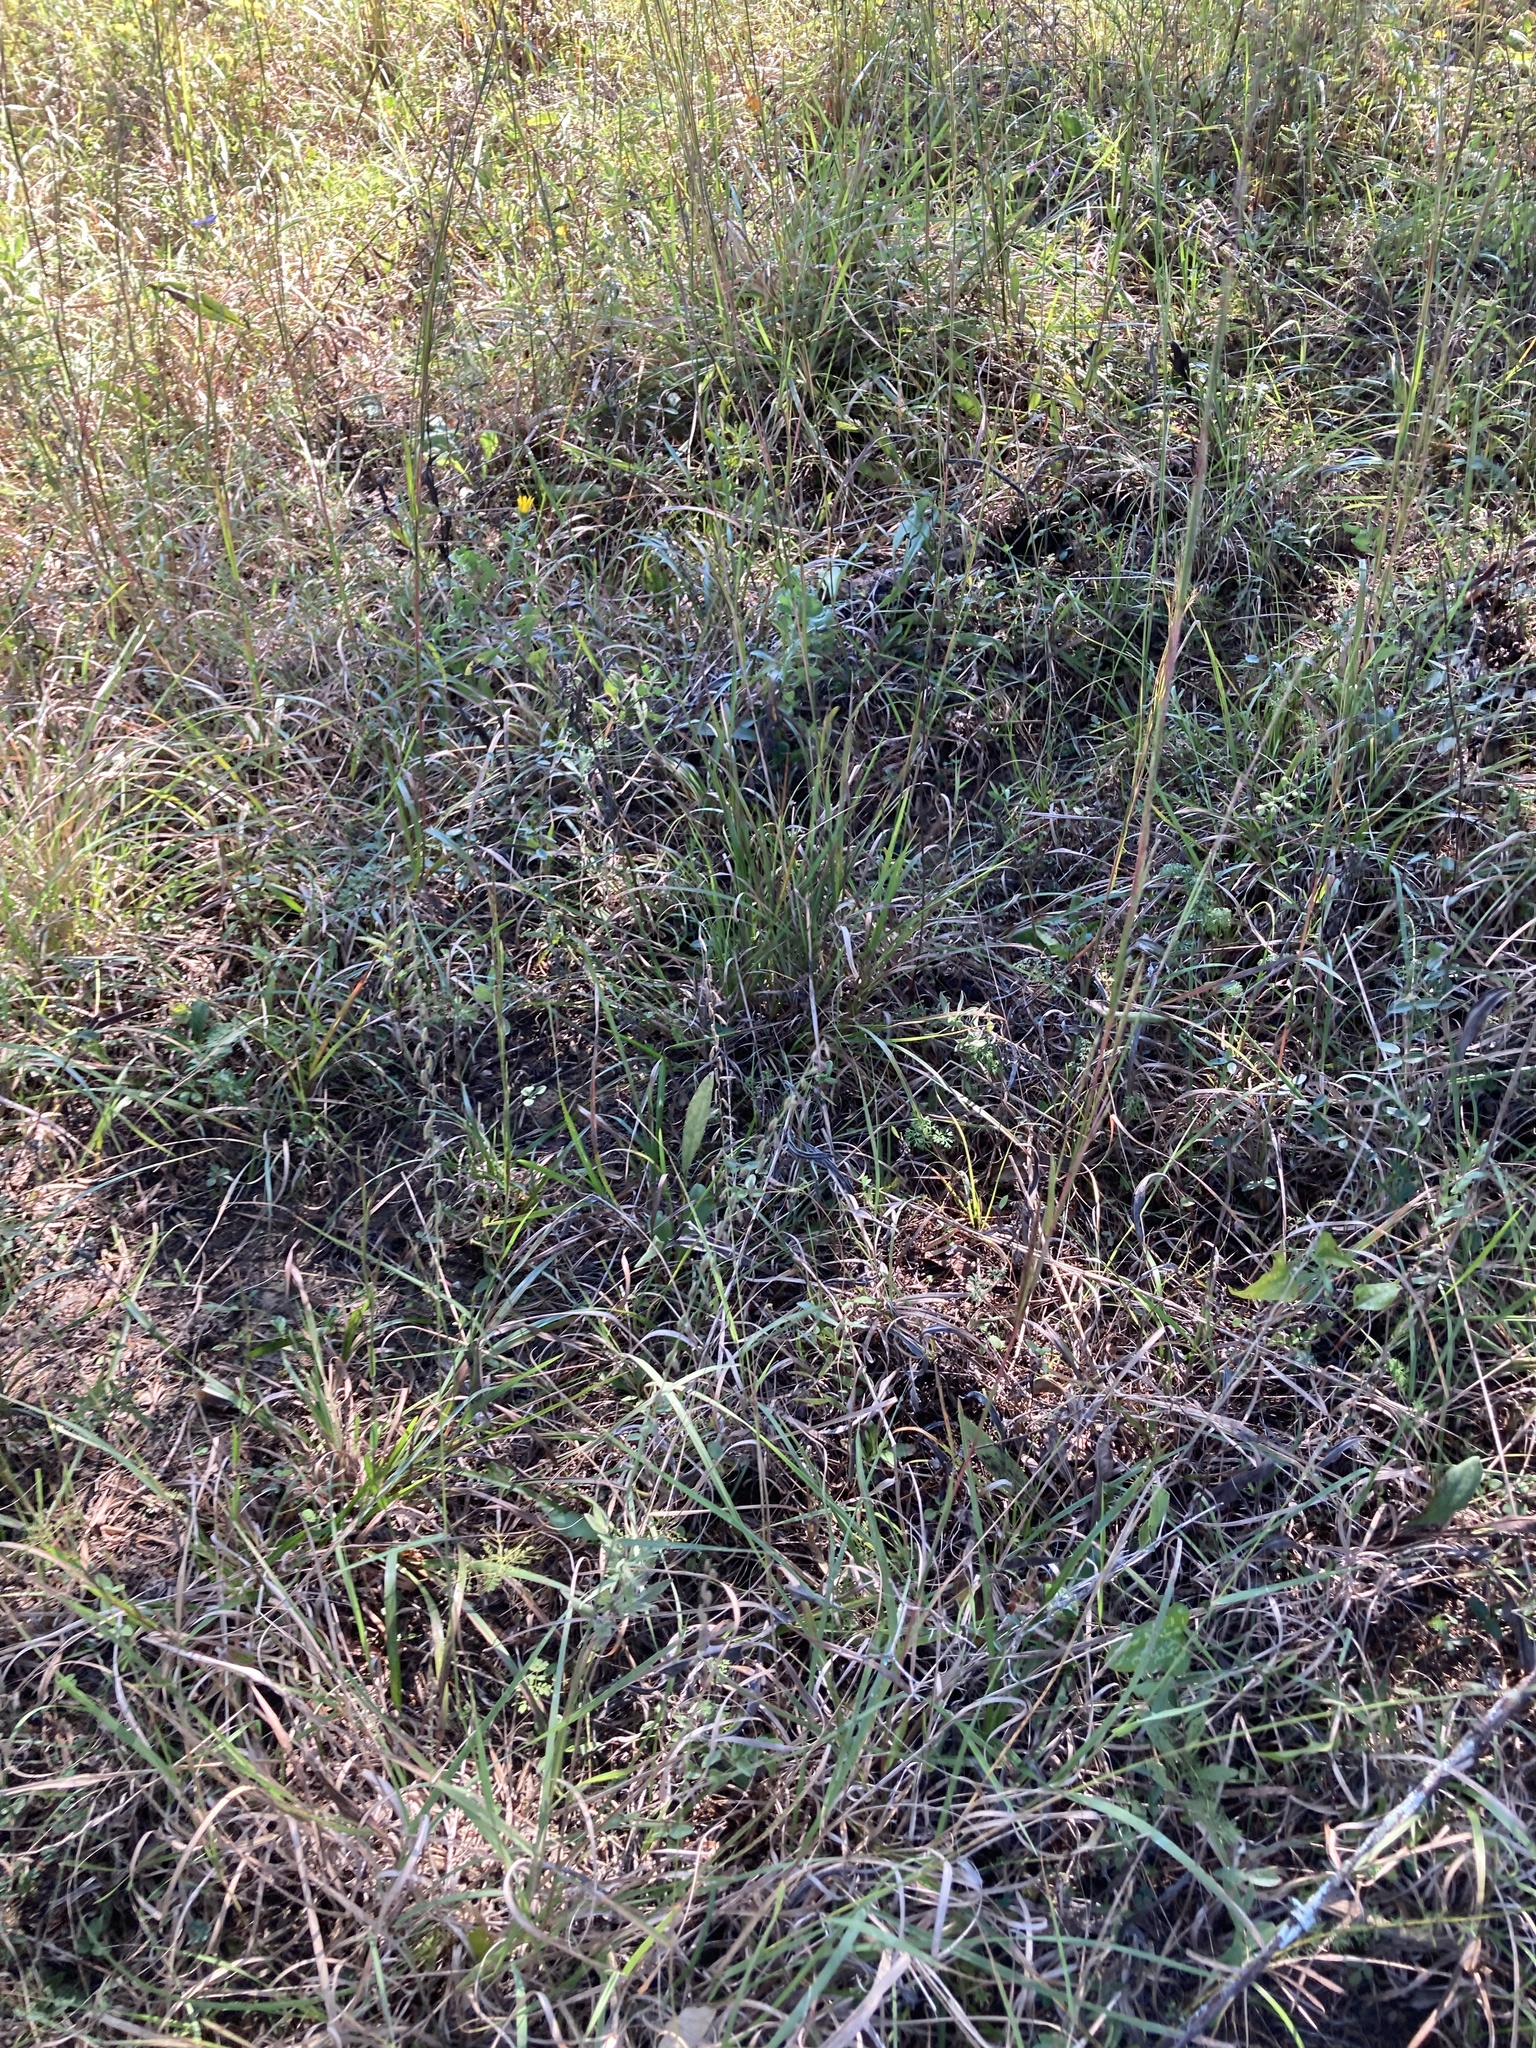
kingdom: Plantae
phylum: Tracheophyta
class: Liliopsida
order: Poales
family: Poaceae
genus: Bouteloua
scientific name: Bouteloua curtipendula
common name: Side-oats grama
